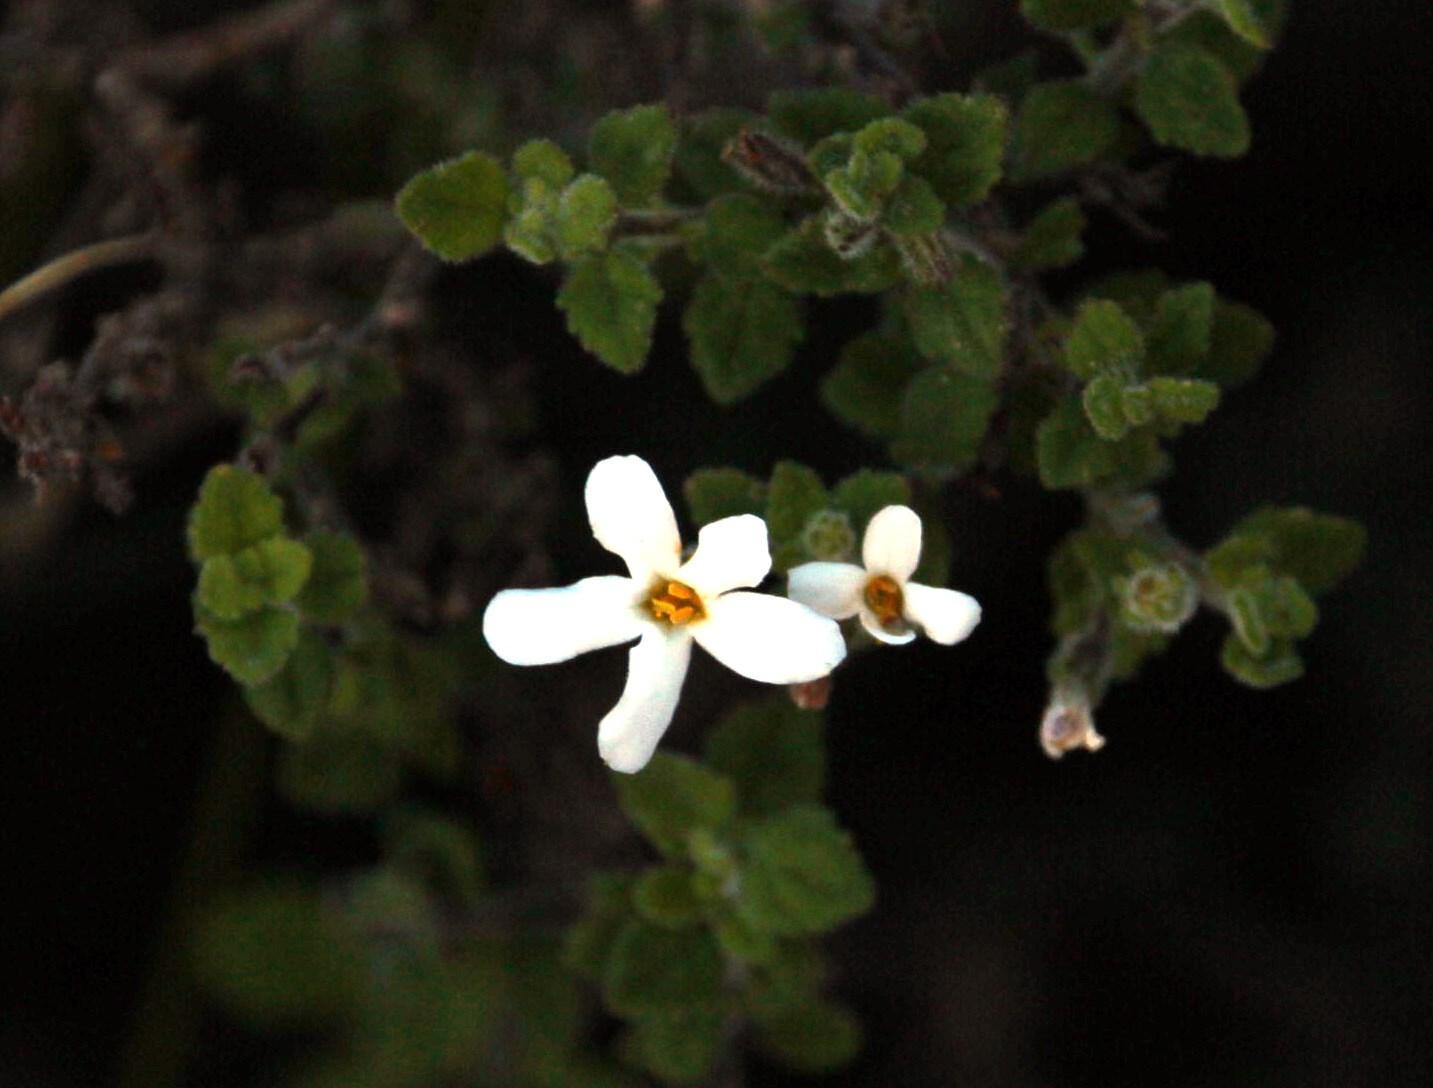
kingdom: Plantae
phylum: Tracheophyta
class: Magnoliopsida
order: Lamiales
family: Scrophulariaceae
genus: Chaenostoma
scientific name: Chaenostoma hispidum
